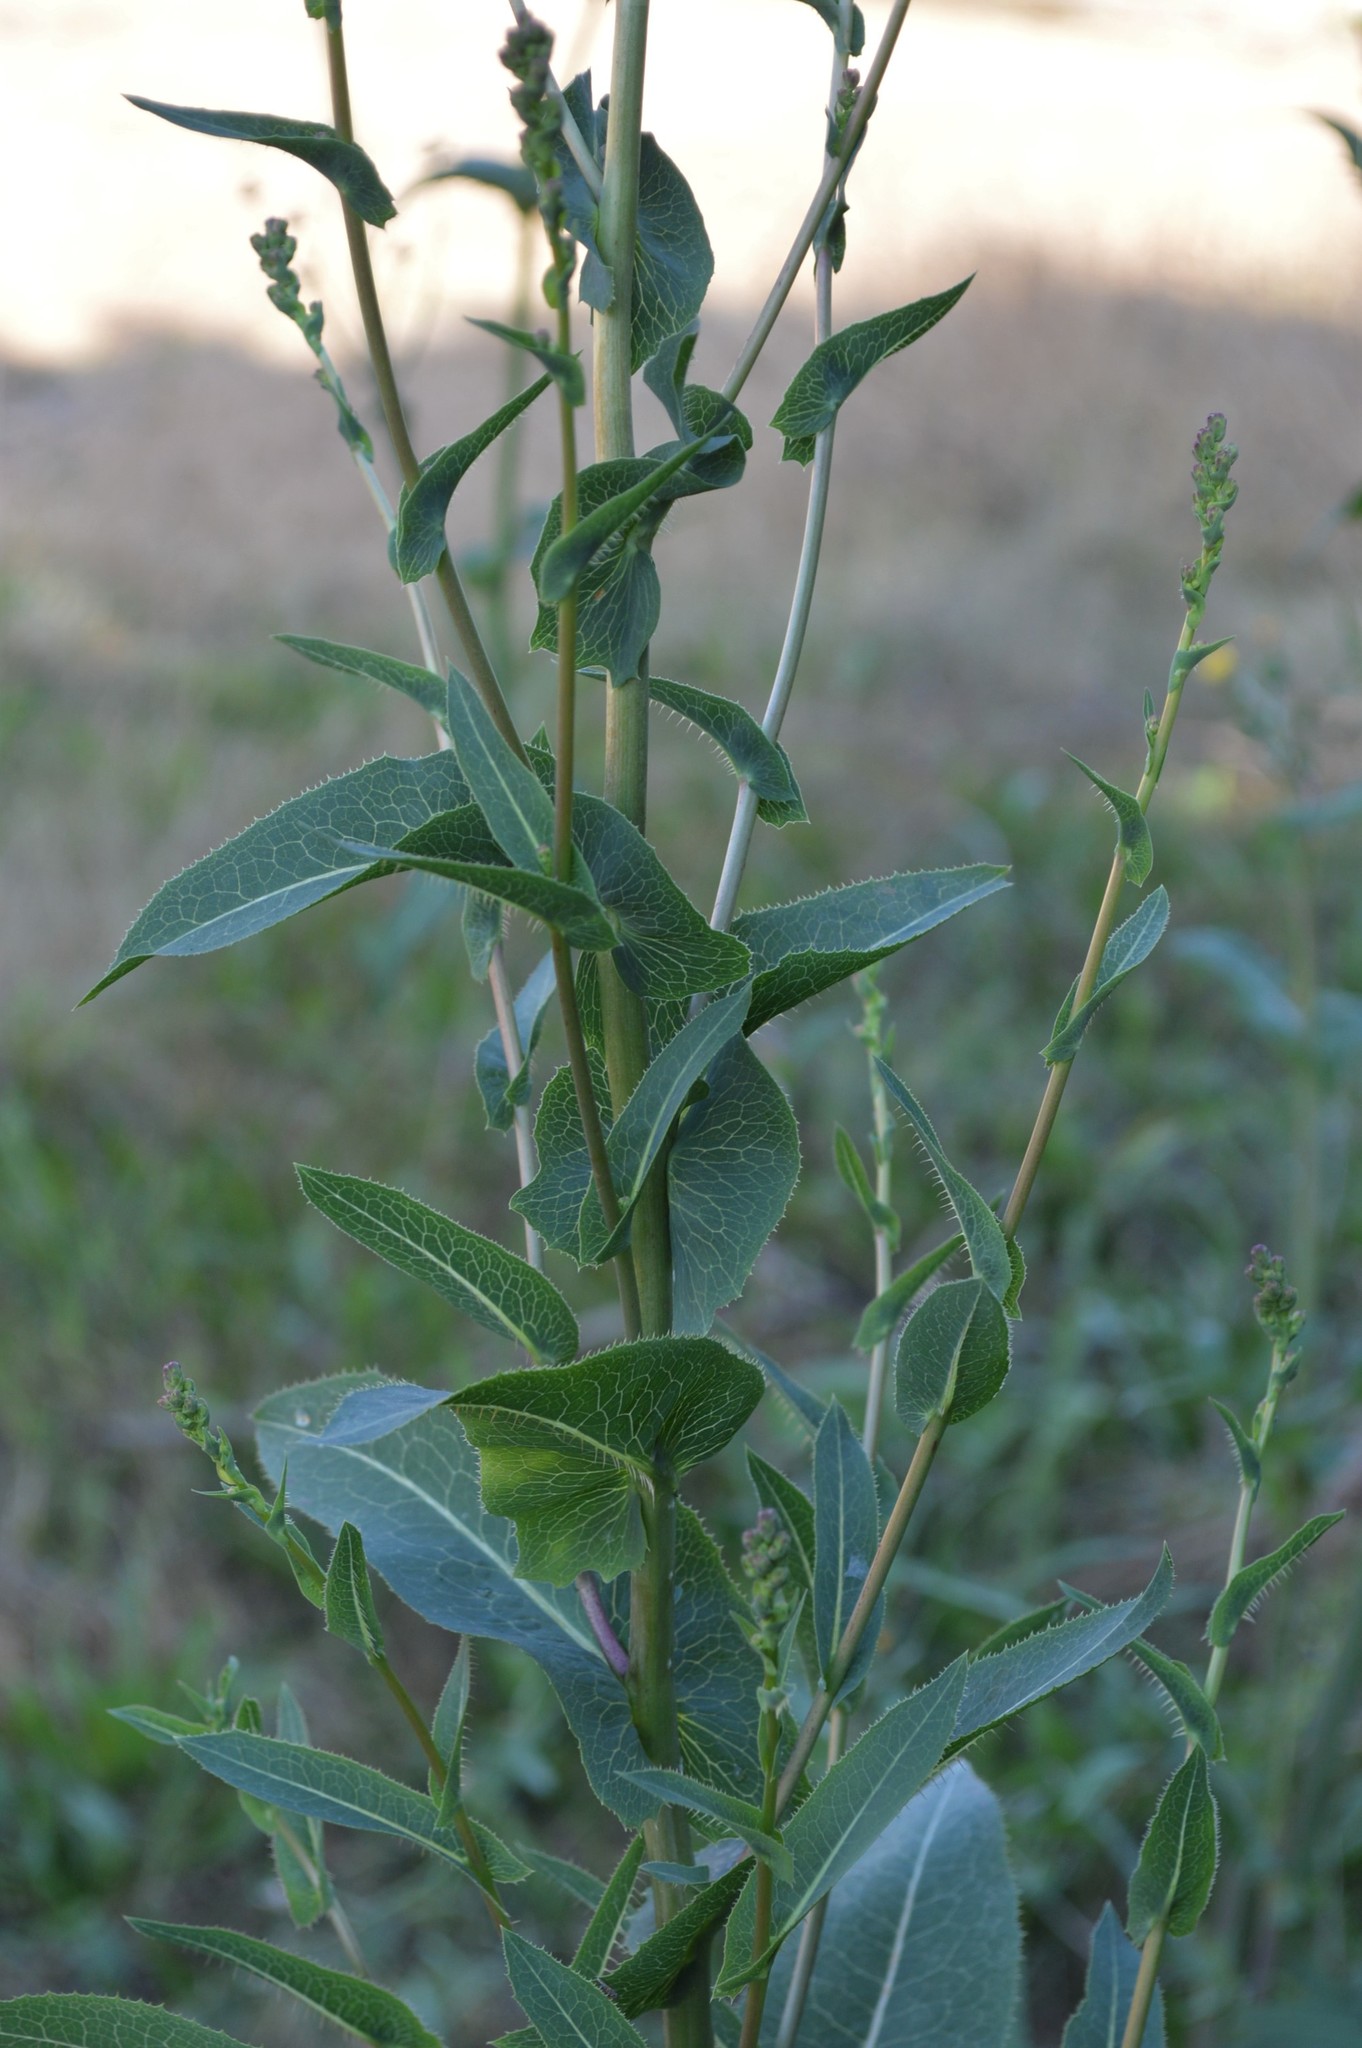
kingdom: Plantae
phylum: Tracheophyta
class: Magnoliopsida
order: Asterales
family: Asteraceae
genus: Lactuca
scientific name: Lactuca serriola
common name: Prickly lettuce
